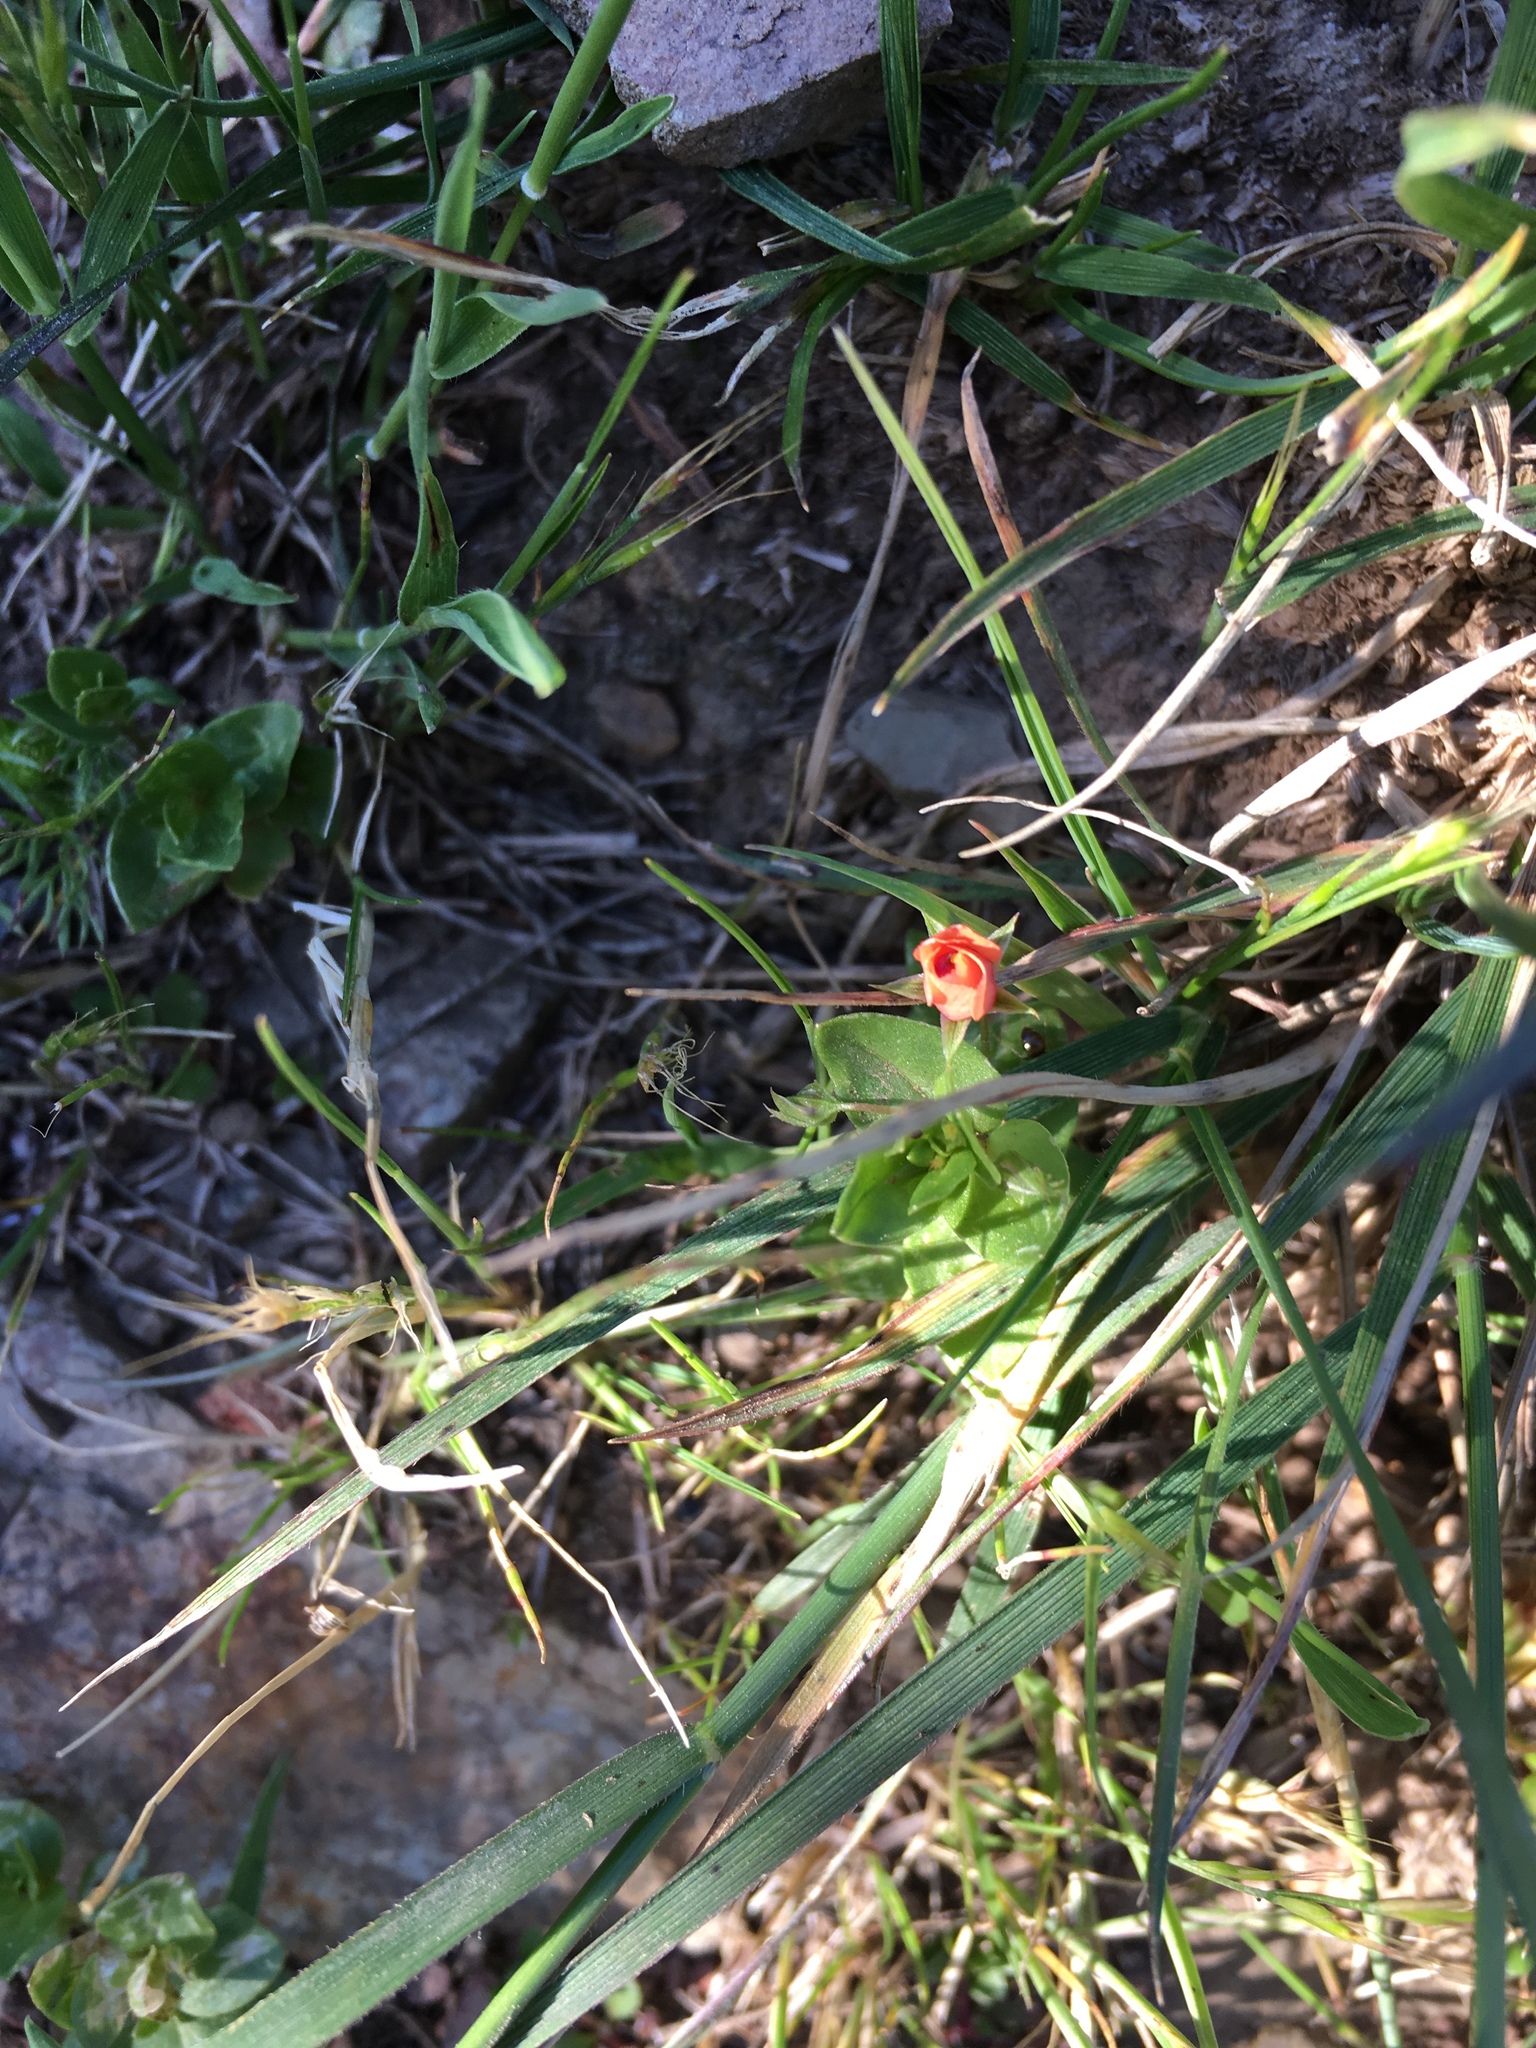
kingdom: Plantae
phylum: Tracheophyta
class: Magnoliopsida
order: Ericales
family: Primulaceae
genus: Lysimachia
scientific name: Lysimachia arvensis
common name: Scarlet pimpernel
